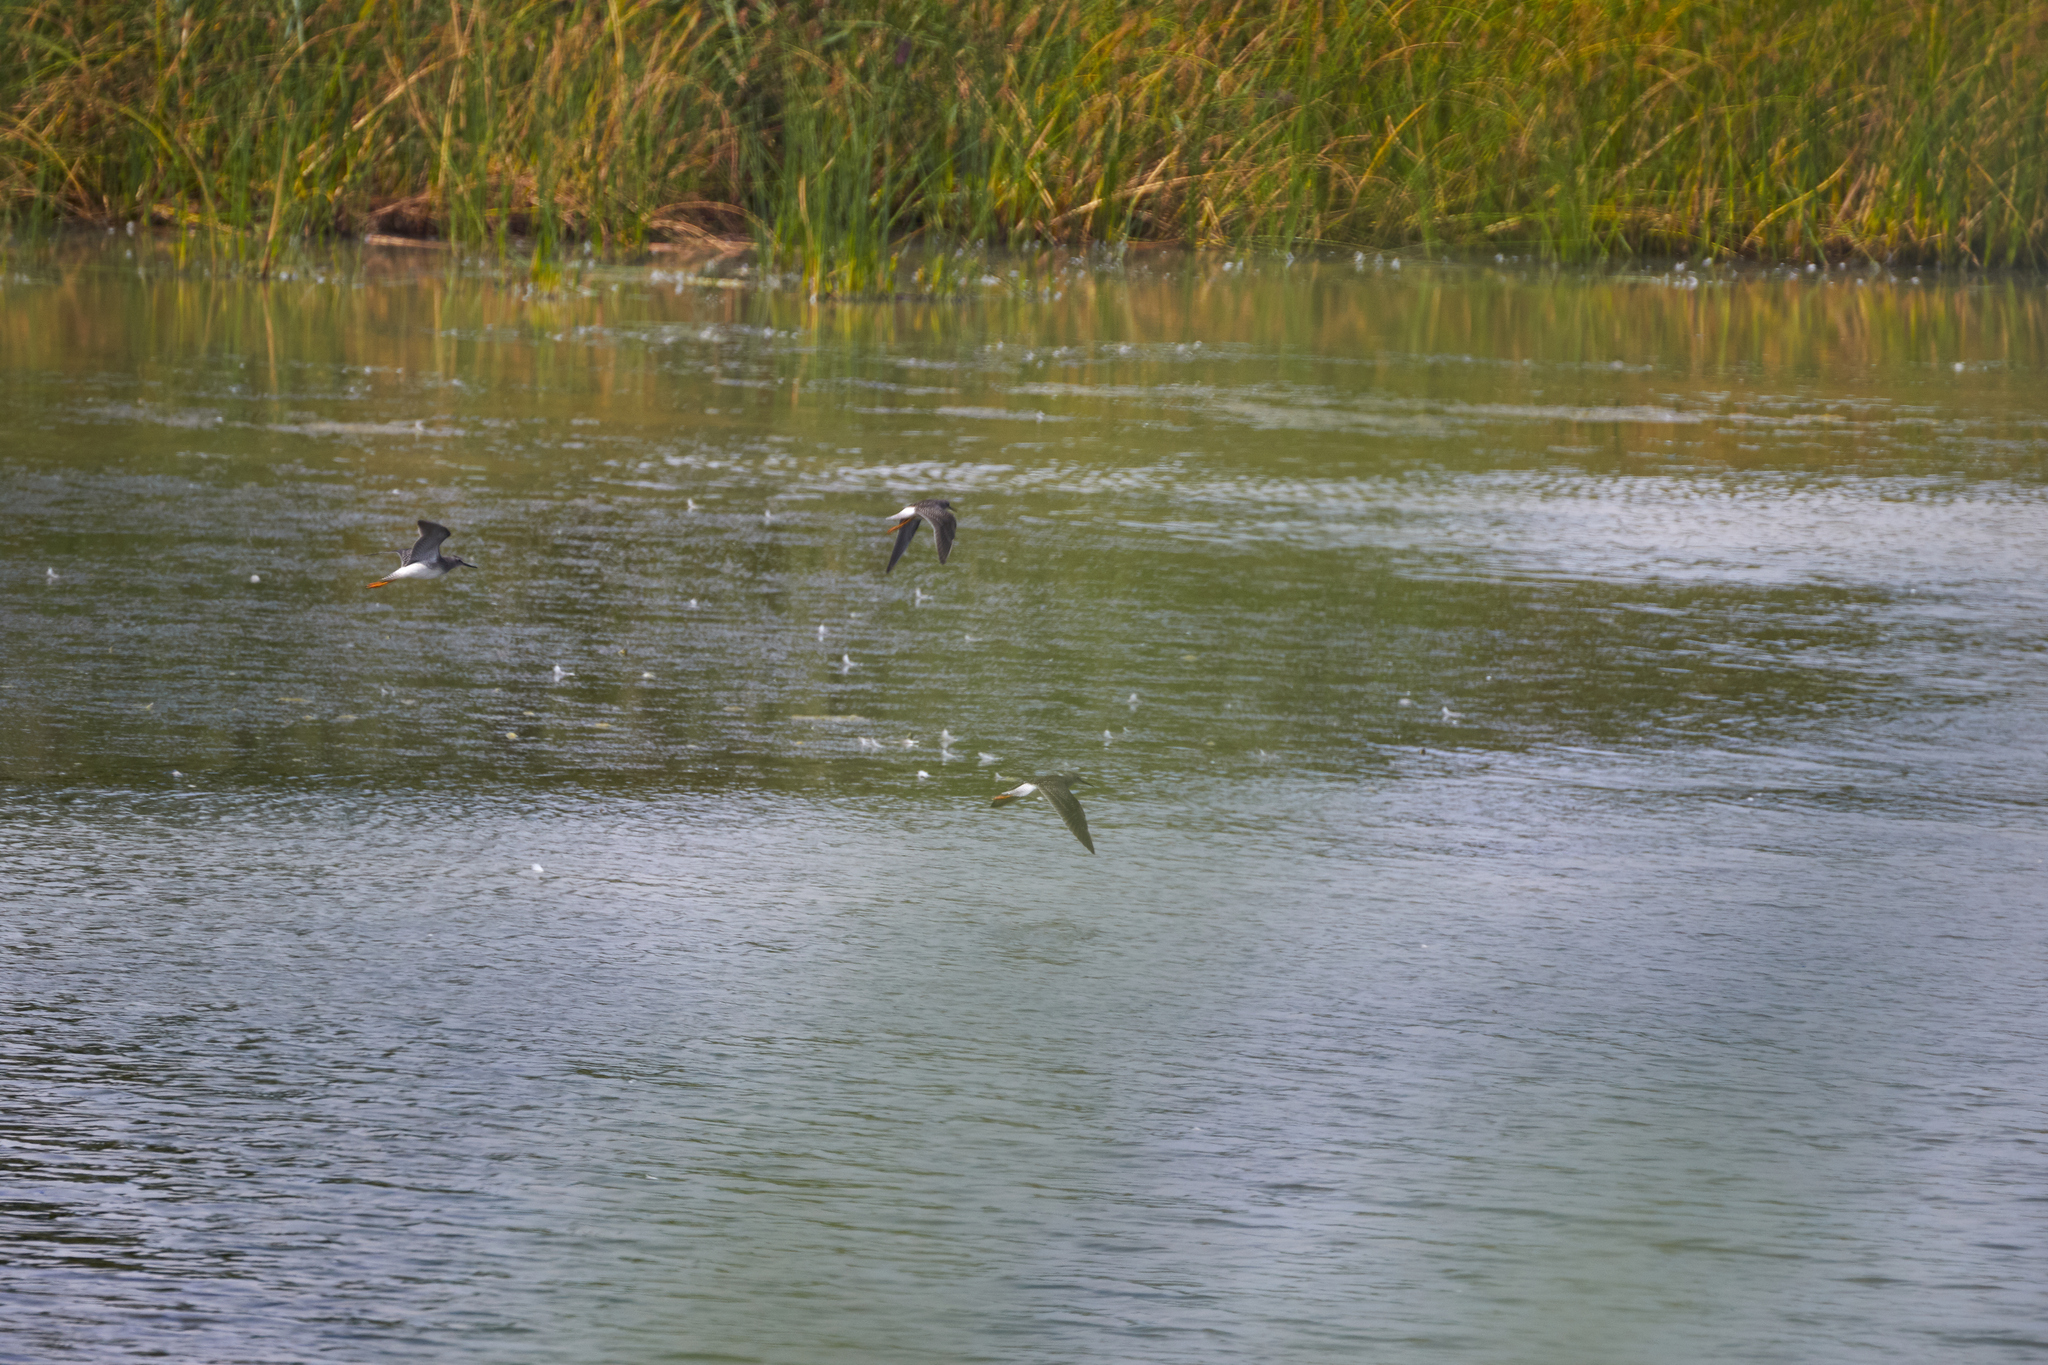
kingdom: Animalia
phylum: Chordata
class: Aves
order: Charadriiformes
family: Scolopacidae
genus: Tringa
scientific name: Tringa flavipes
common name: Lesser yellowlegs
